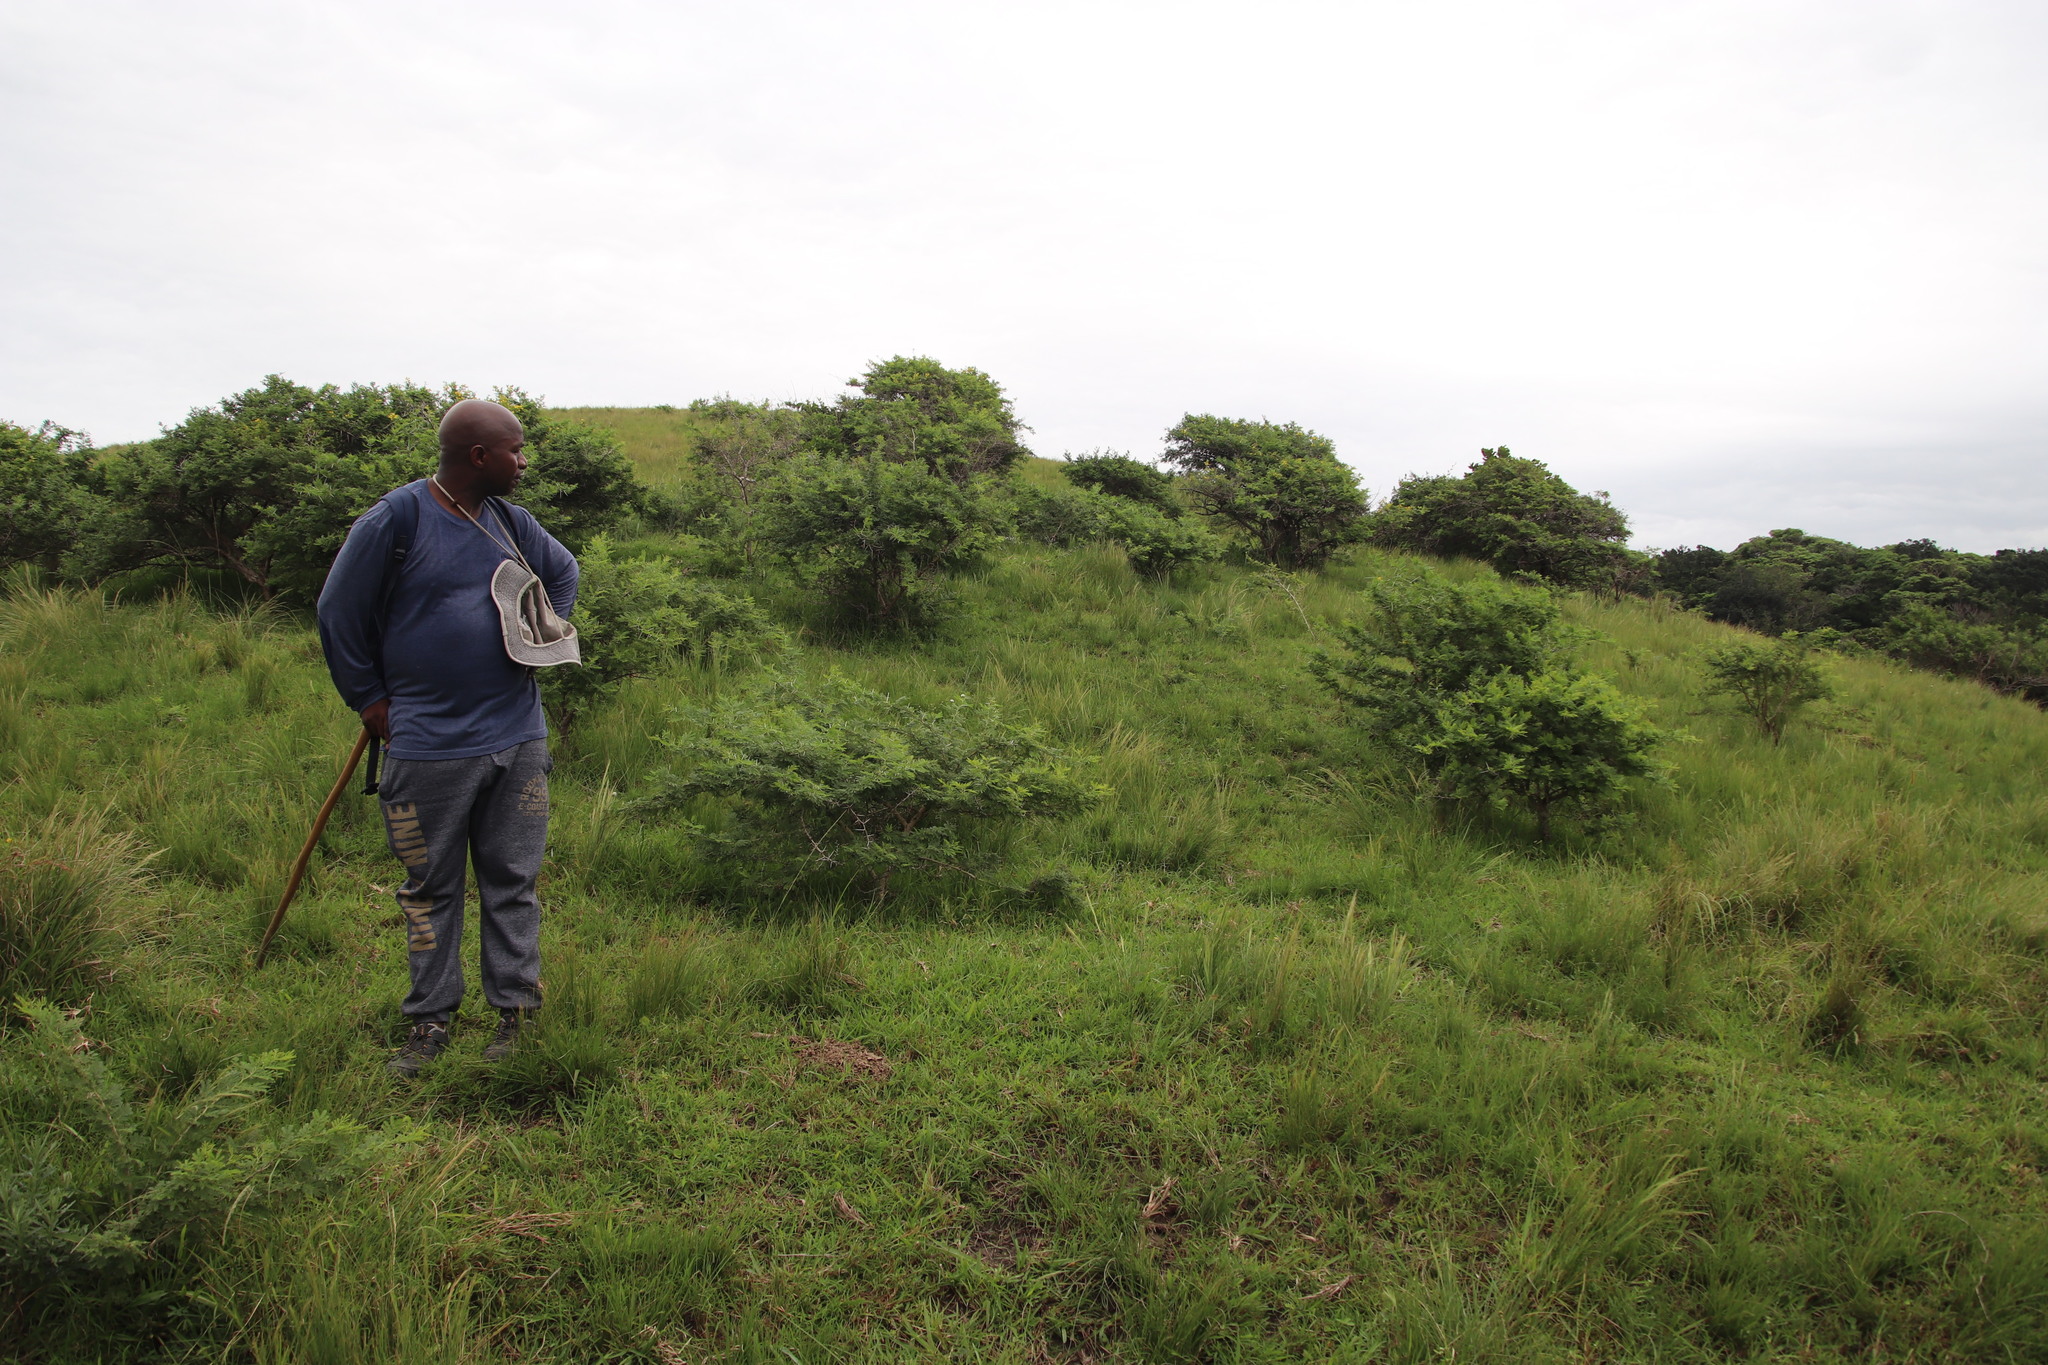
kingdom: Plantae
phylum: Tracheophyta
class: Magnoliopsida
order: Fabales
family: Fabaceae
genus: Vachellia
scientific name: Vachellia karroo
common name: Sweet thorn
